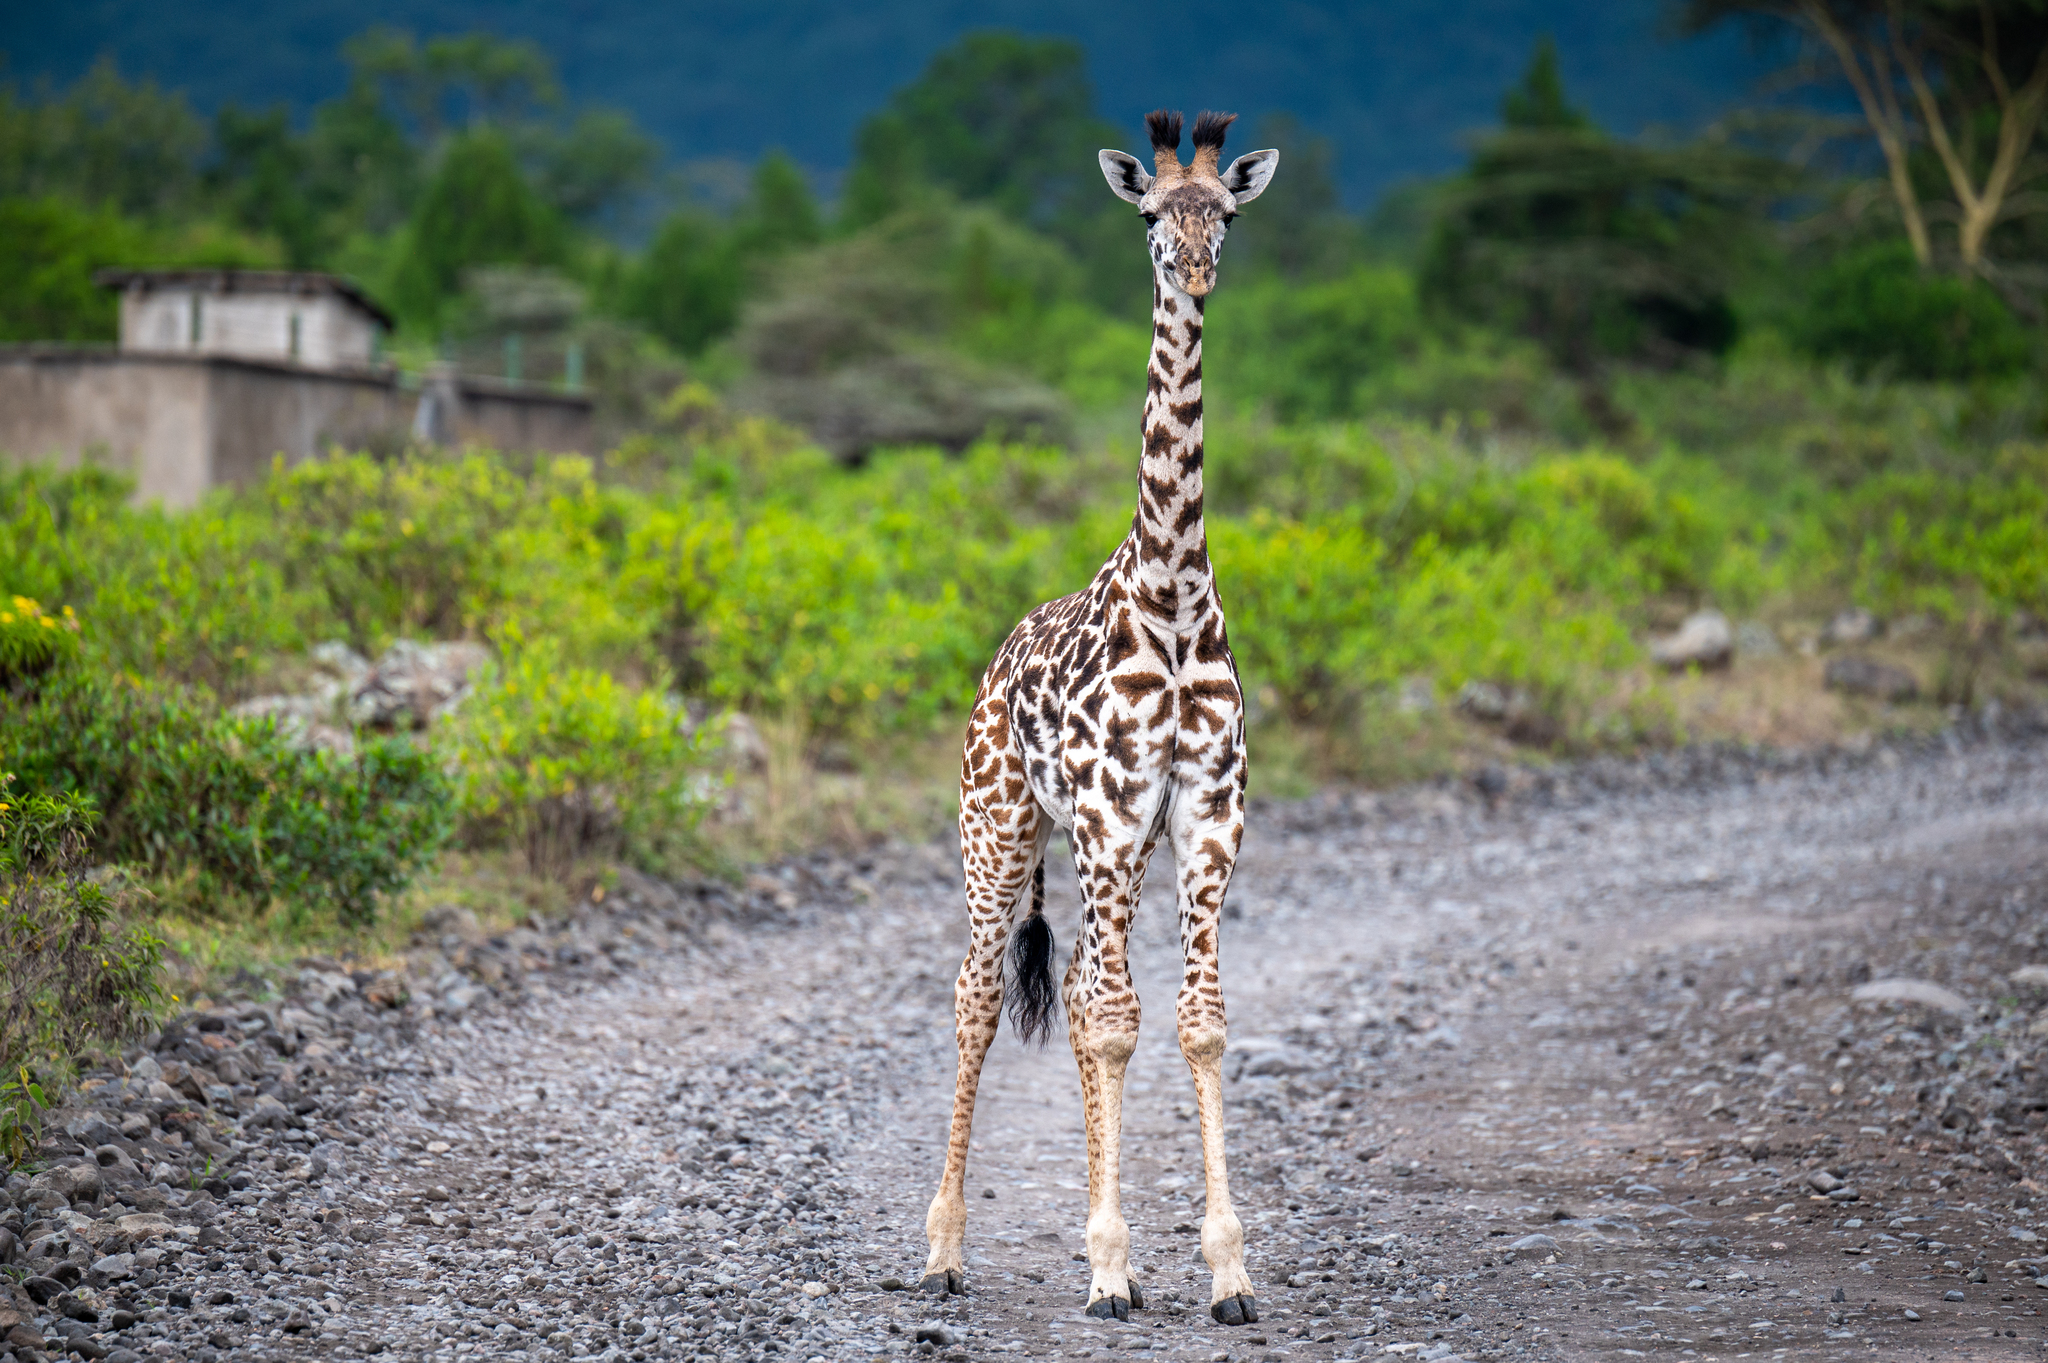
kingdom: Animalia
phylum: Chordata
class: Mammalia
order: Artiodactyla
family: Giraffidae
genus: Giraffa
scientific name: Giraffa tippelskirchi
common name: Masai giraffe
